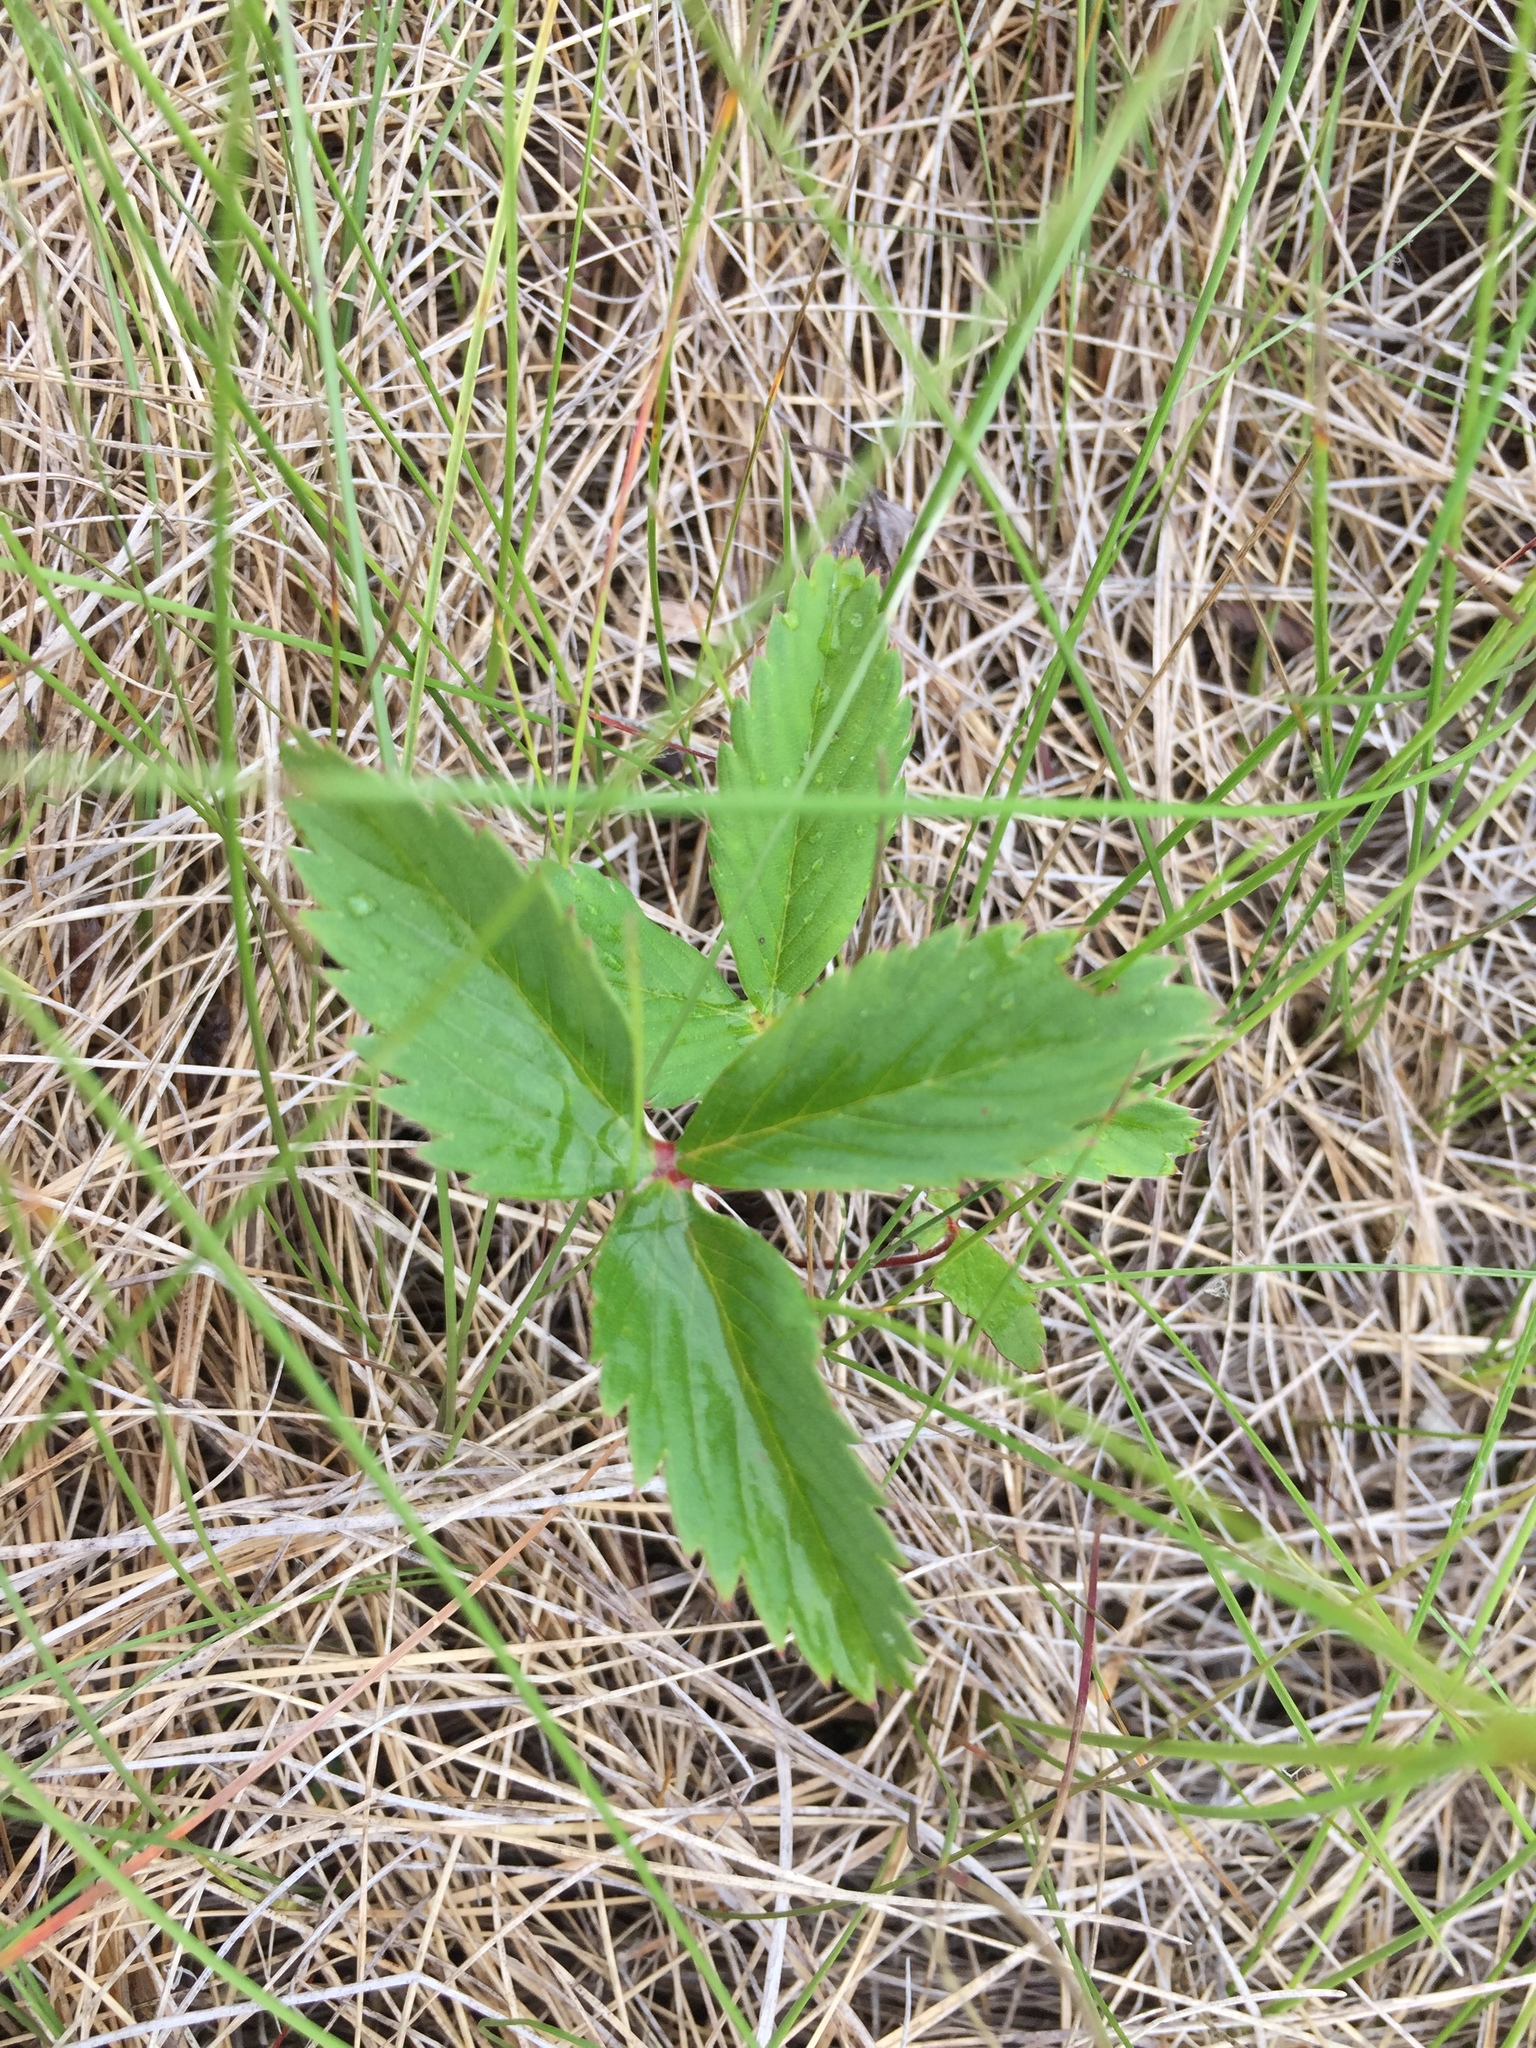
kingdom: Plantae
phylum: Tracheophyta
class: Magnoliopsida
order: Rosales
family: Rosaceae
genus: Fragaria
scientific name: Fragaria virginiana
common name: Thickleaved wild strawberry
